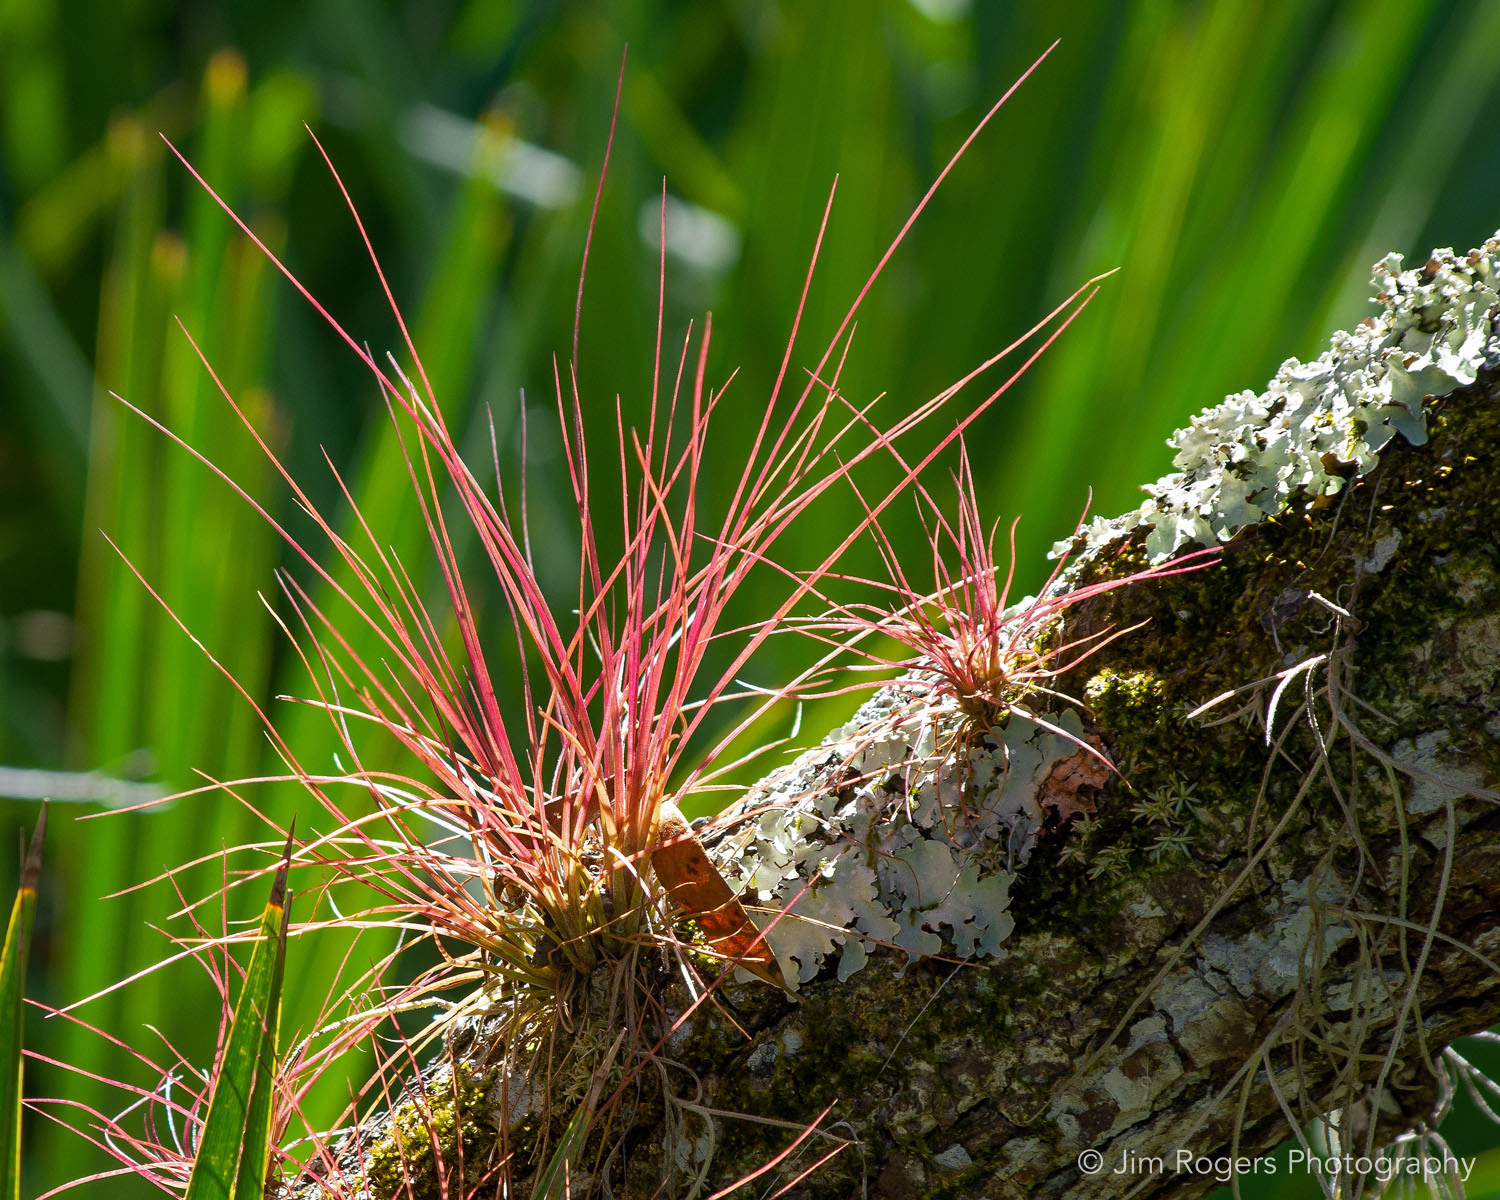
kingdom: Plantae
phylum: Tracheophyta
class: Liliopsida
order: Poales
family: Bromeliaceae
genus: Tillandsia
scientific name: Tillandsia setacea
